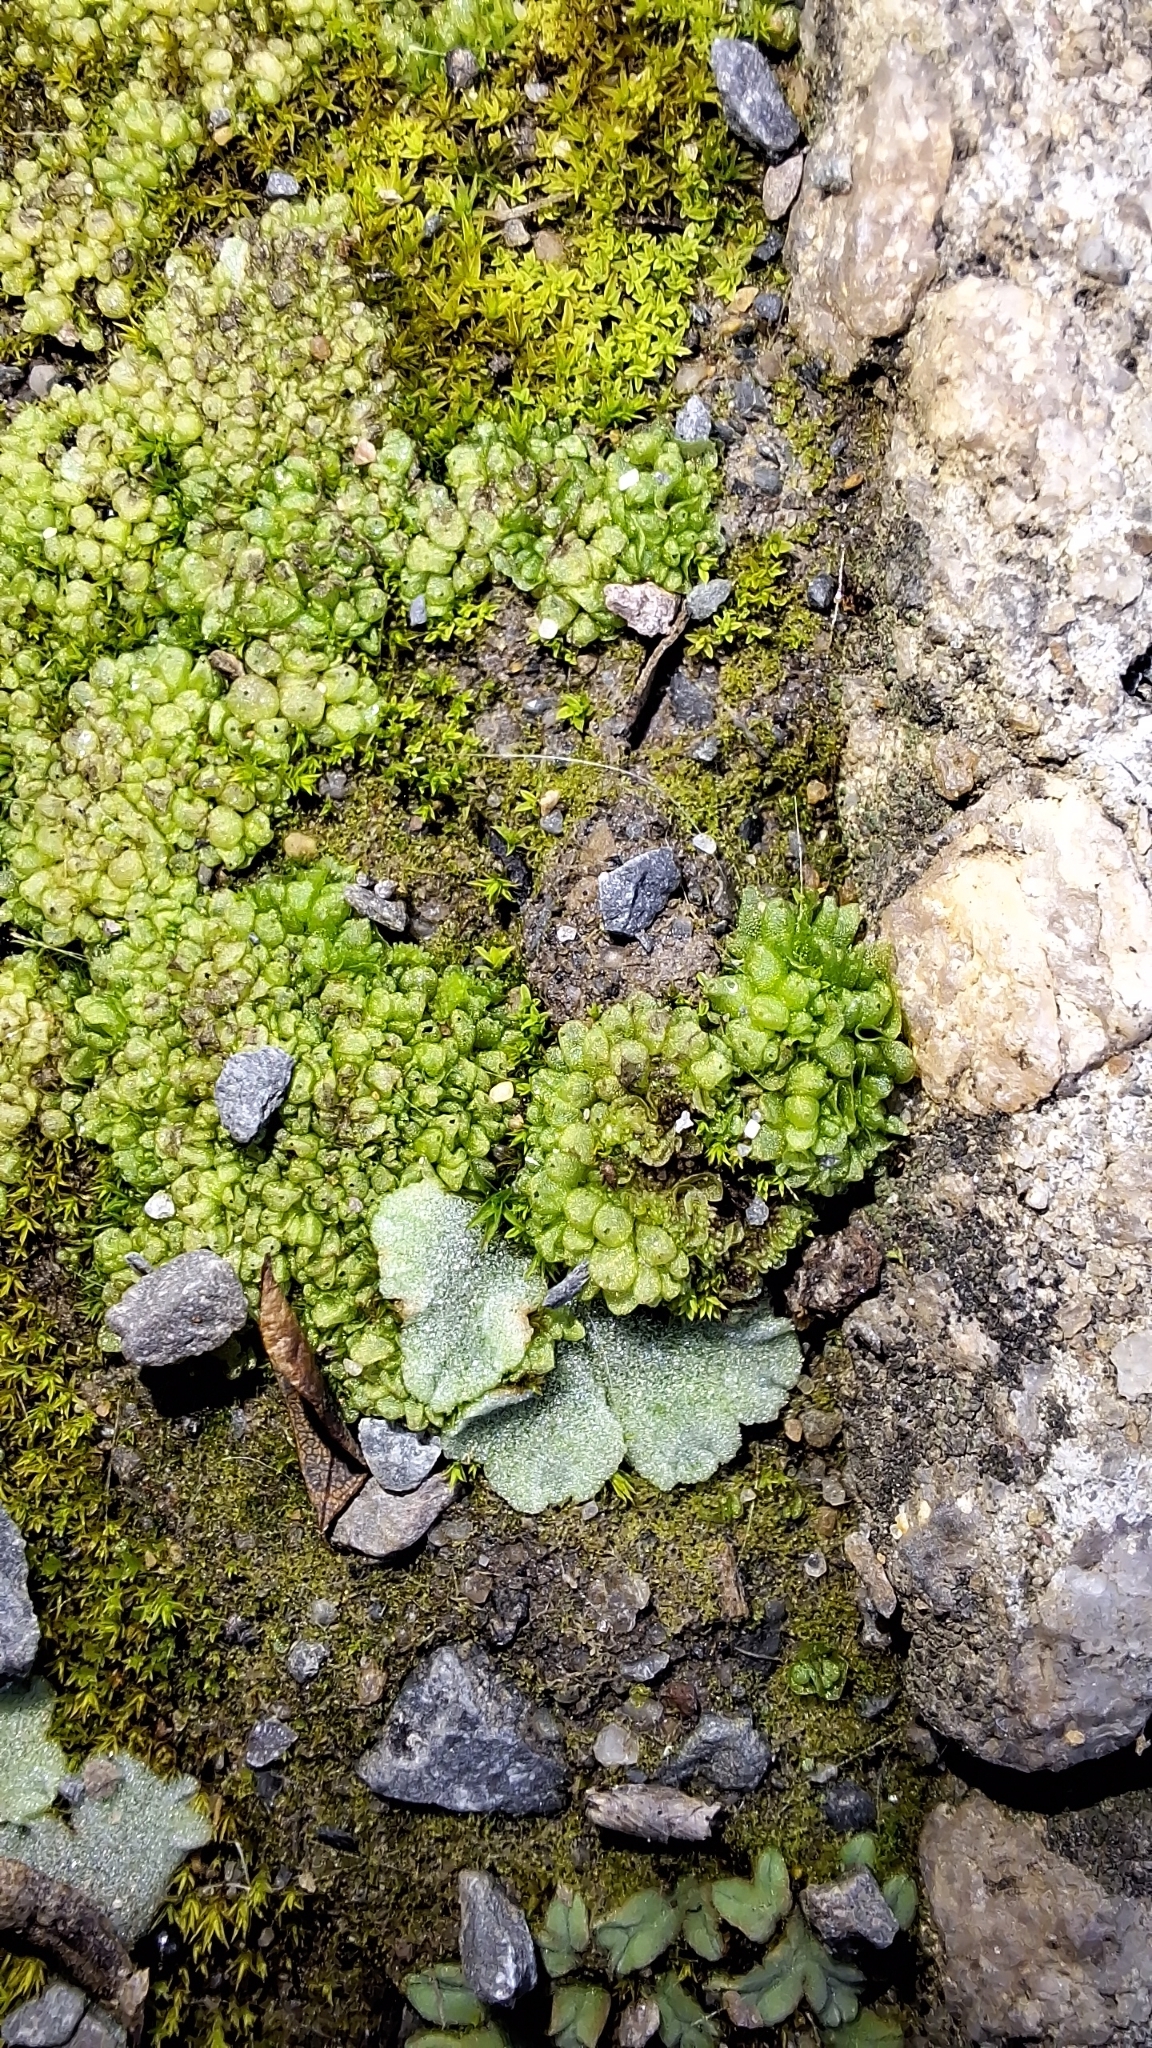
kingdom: Plantae
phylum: Marchantiophyta
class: Marchantiopsida
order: Sphaerocarpales
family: Sphaerocarpaceae
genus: Sphaerocarpos
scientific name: Sphaerocarpos texanus
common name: Texas balloonwort
